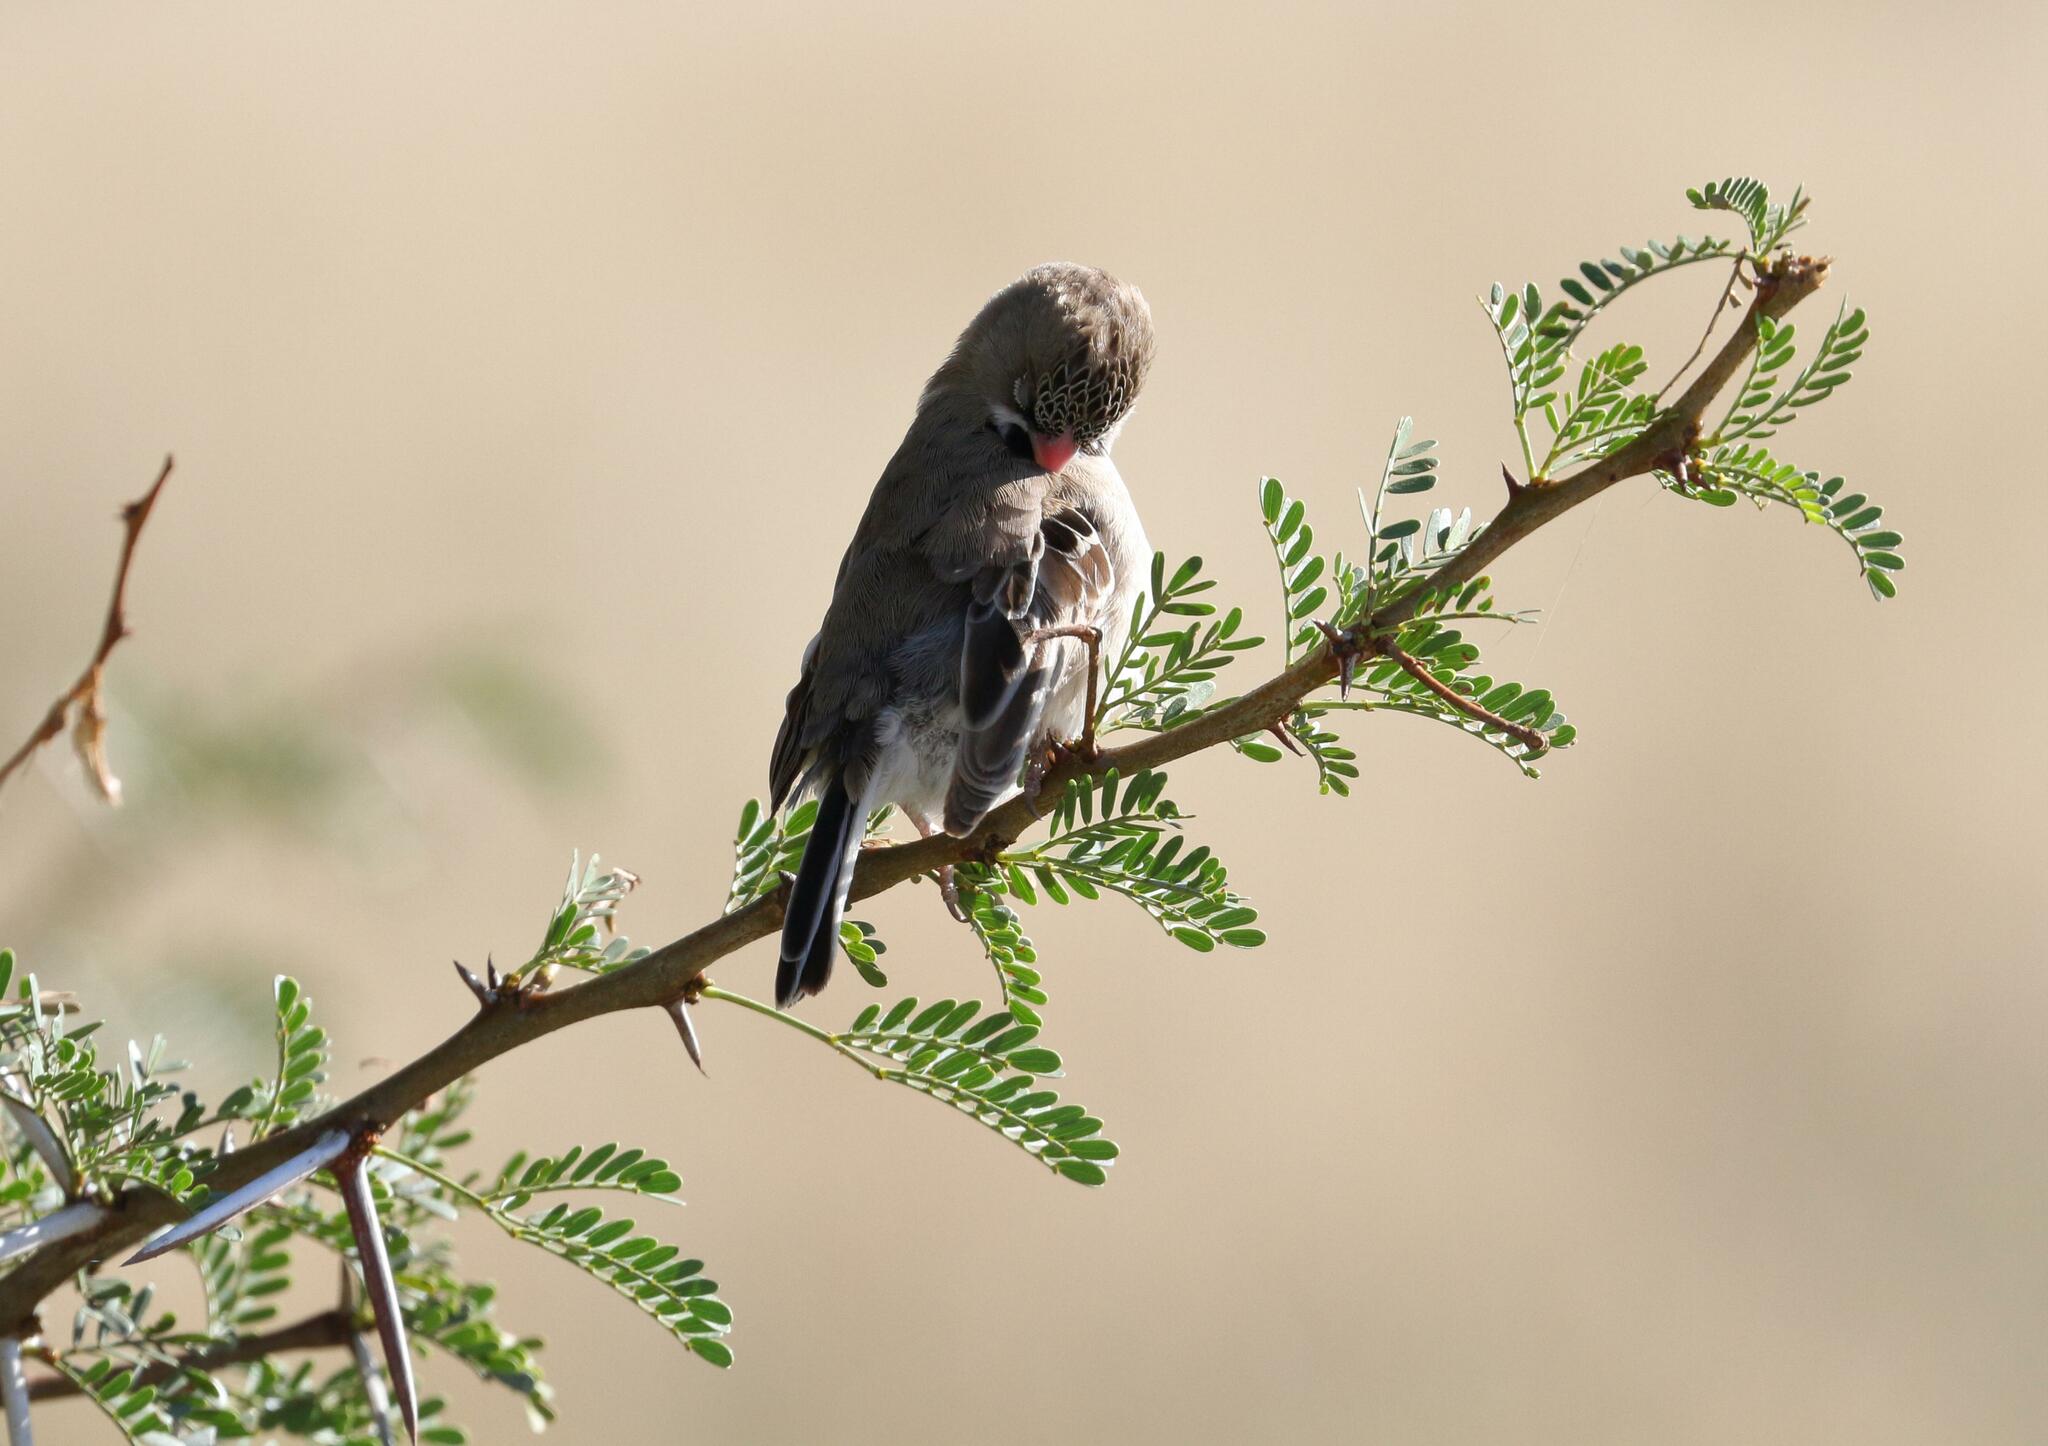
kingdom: Animalia
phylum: Chordata
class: Aves
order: Passeriformes
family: Ploceidae
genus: Sporopipes
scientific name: Sporopipes squamifrons
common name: Scaly-feathered weaver
